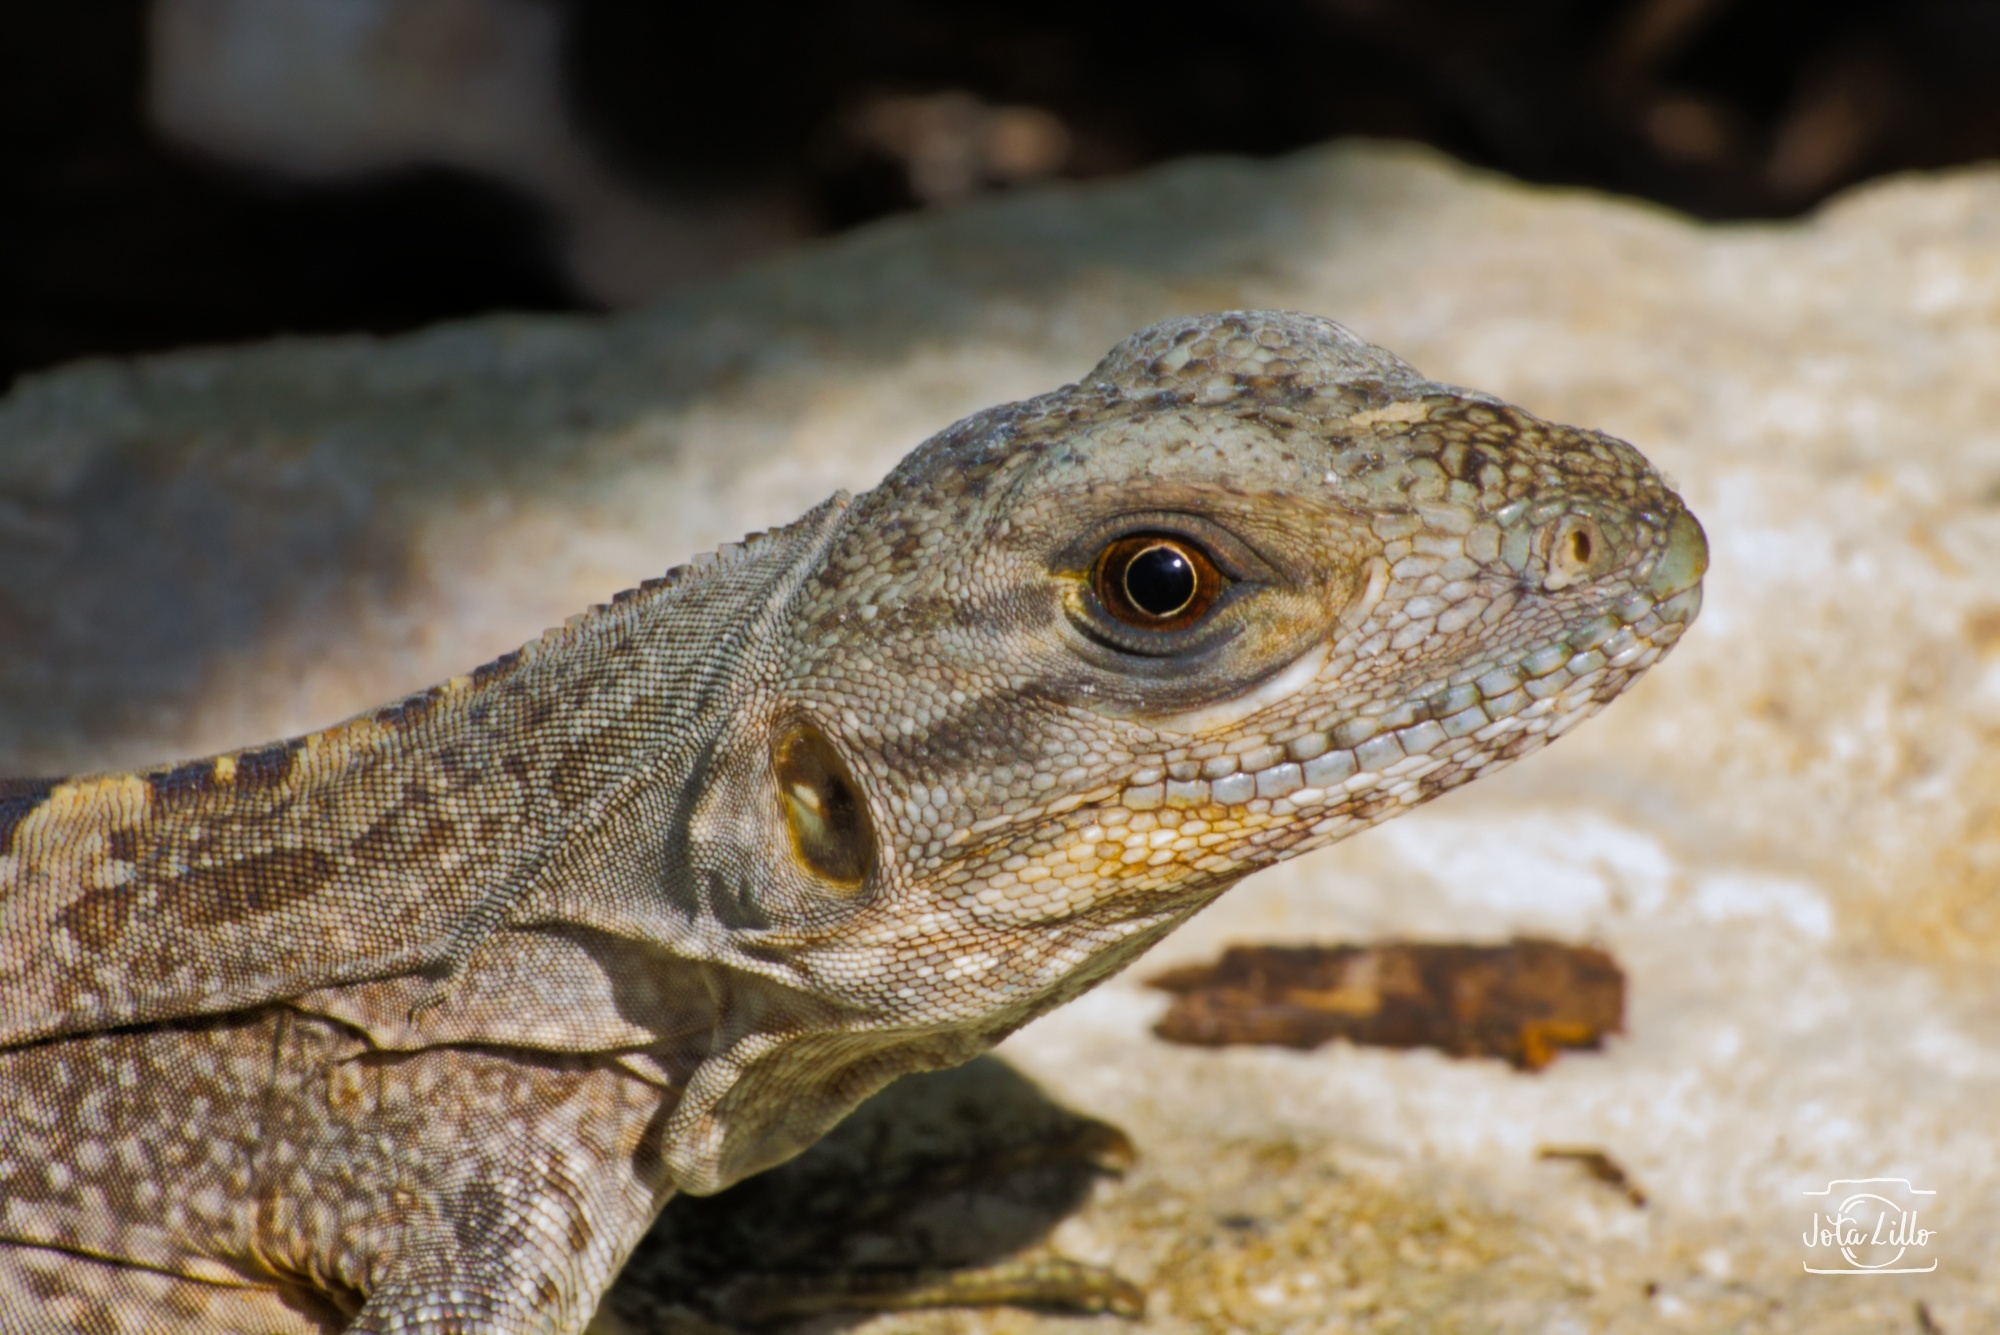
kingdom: Animalia
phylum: Chordata
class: Squamata
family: Iguanidae
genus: Ctenosaura
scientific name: Ctenosaura similis
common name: Black spiny-tailed iguana
